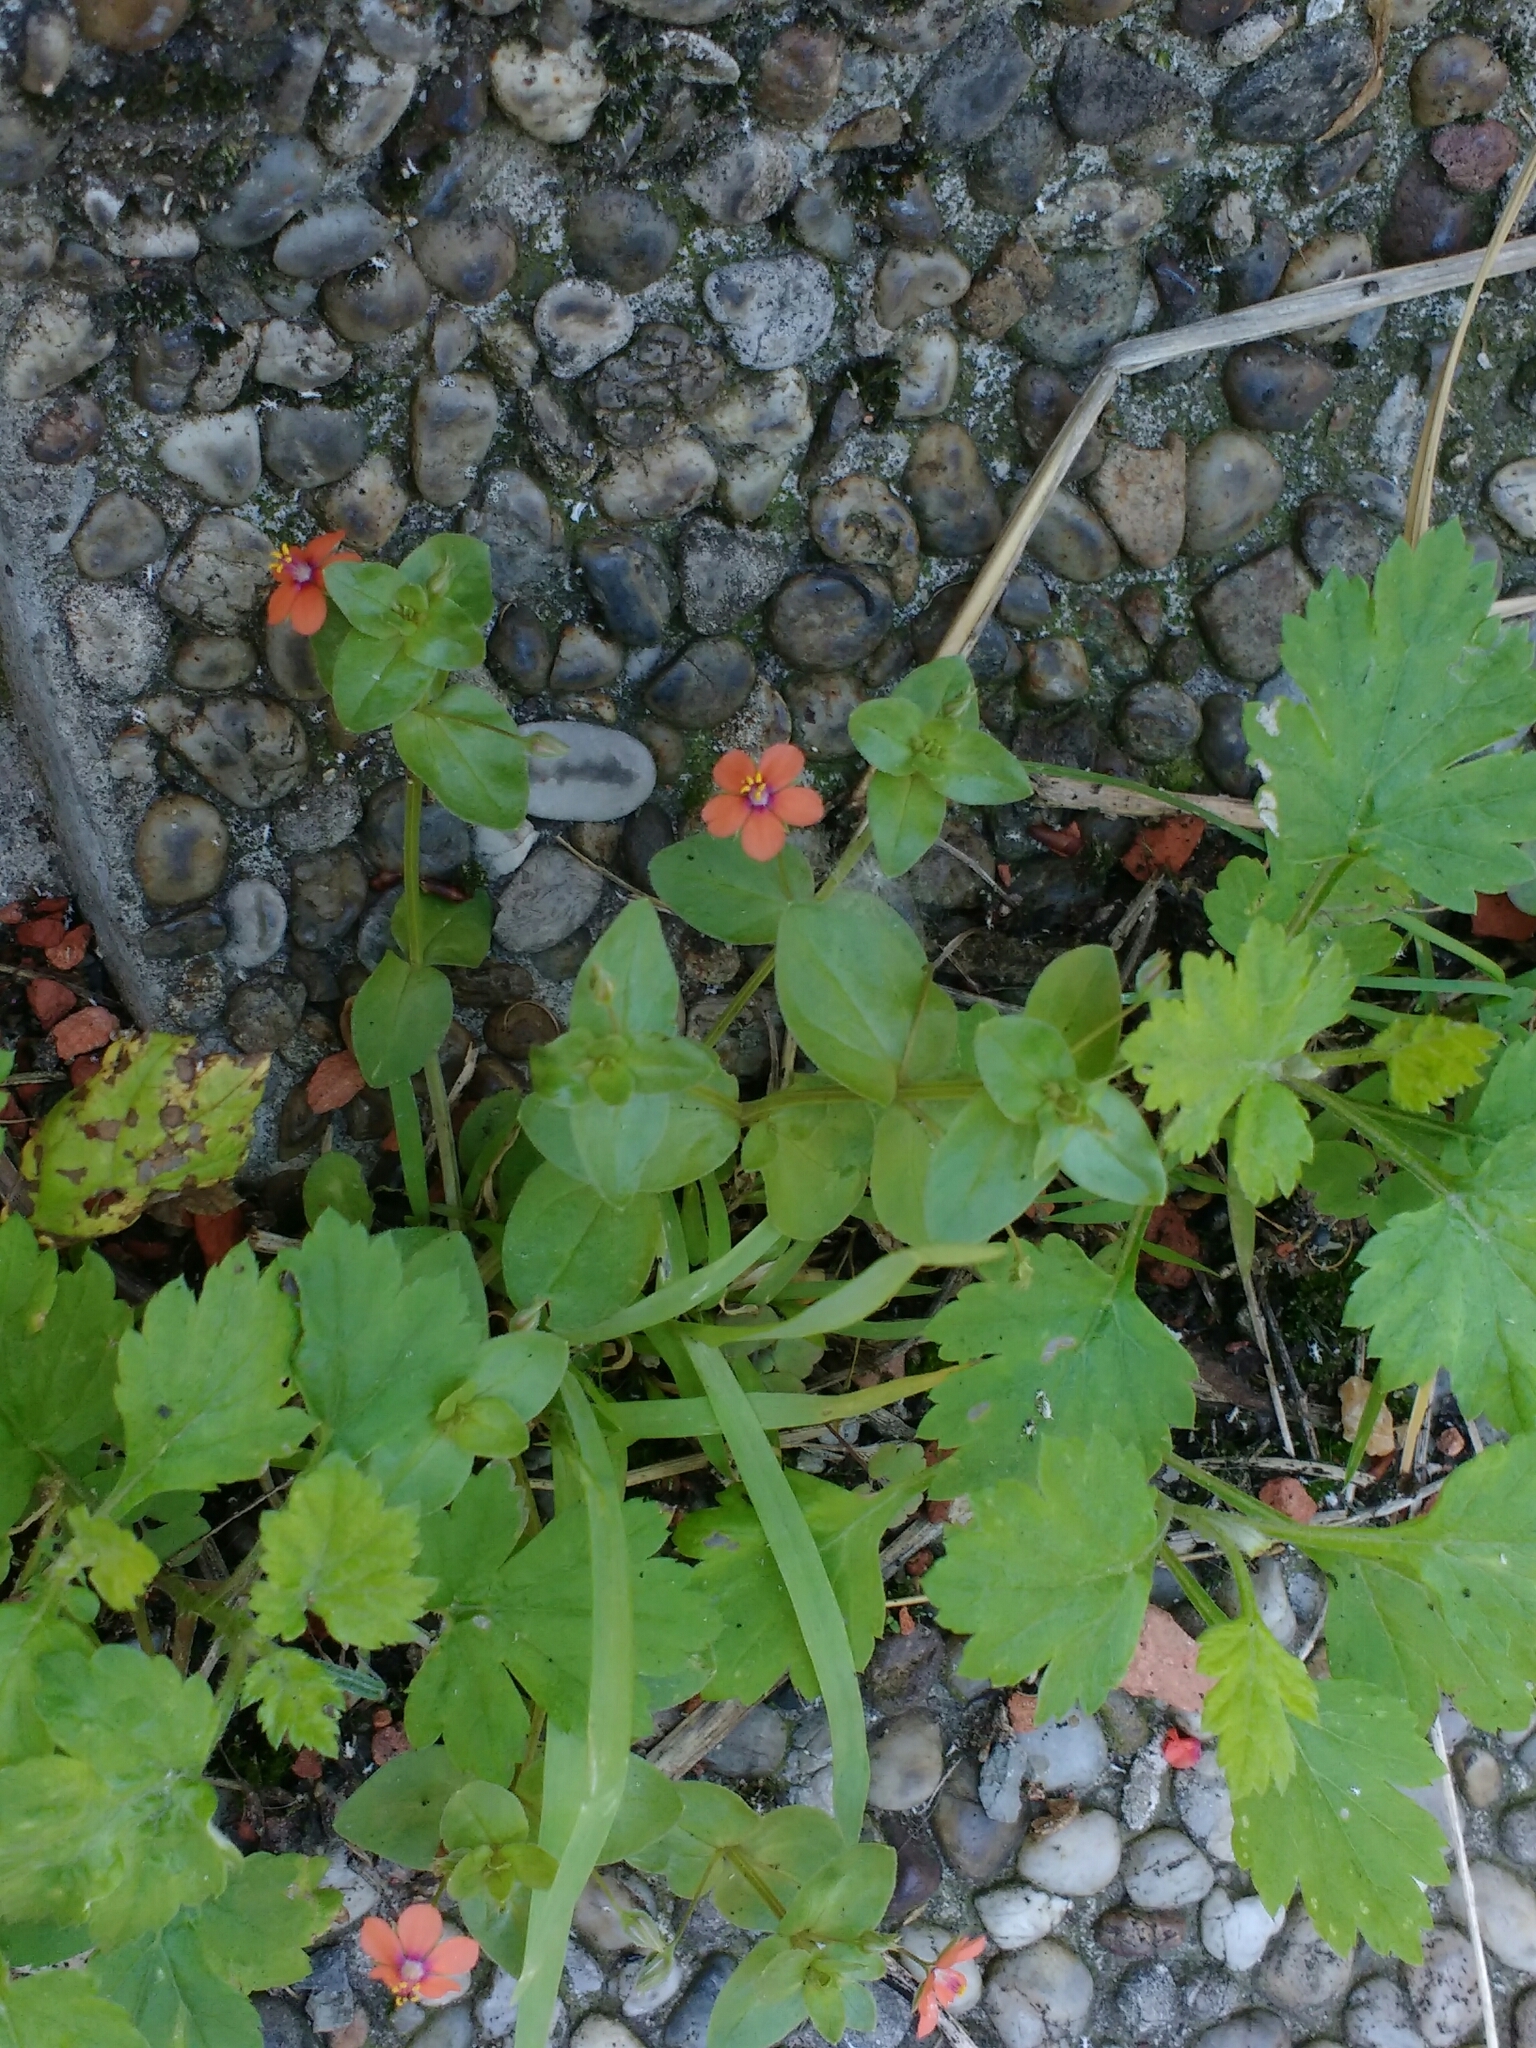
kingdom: Plantae
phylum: Tracheophyta
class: Magnoliopsida
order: Ericales
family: Primulaceae
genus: Lysimachia
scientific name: Lysimachia arvensis
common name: Scarlet pimpernel
